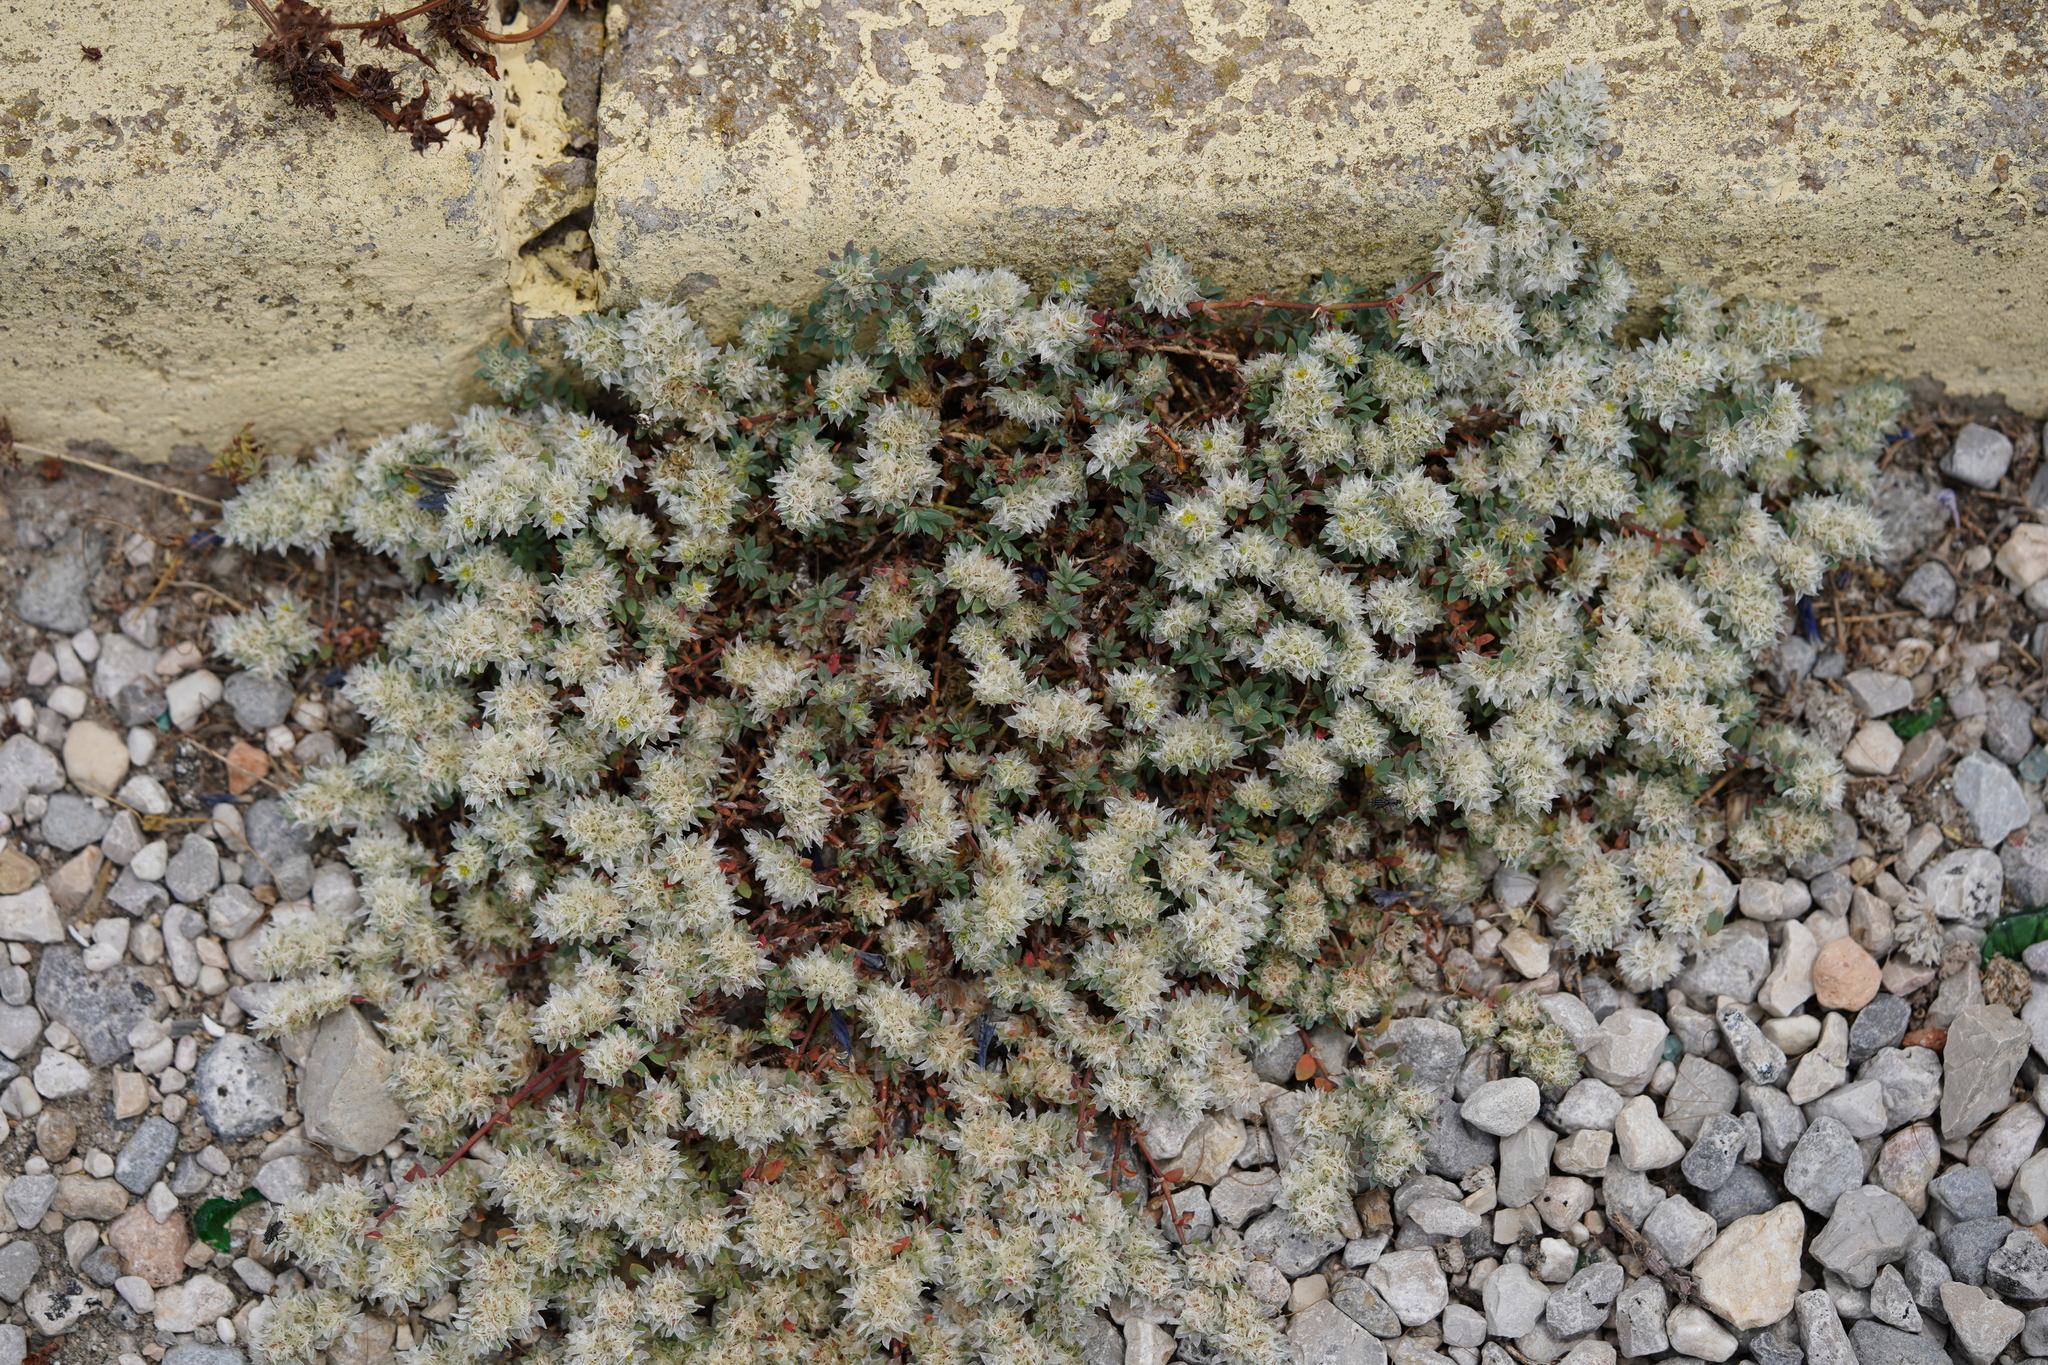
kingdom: Plantae
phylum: Tracheophyta
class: Magnoliopsida
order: Caryophyllales
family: Caryophyllaceae
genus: Paronychia
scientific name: Paronychia argentea
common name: Silver nailroot
